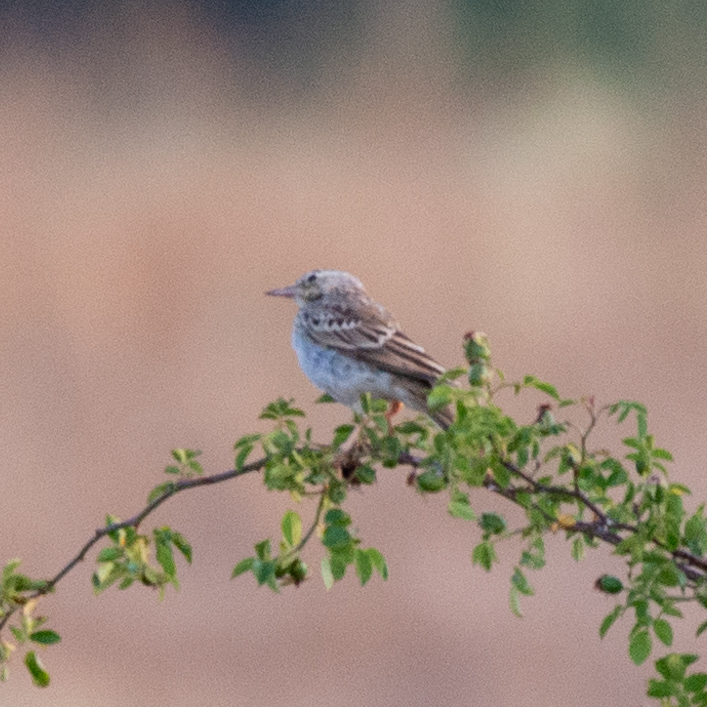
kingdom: Animalia
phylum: Chordata
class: Aves
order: Passeriformes
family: Motacillidae
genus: Anthus
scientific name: Anthus campestris
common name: Tawny pipit
